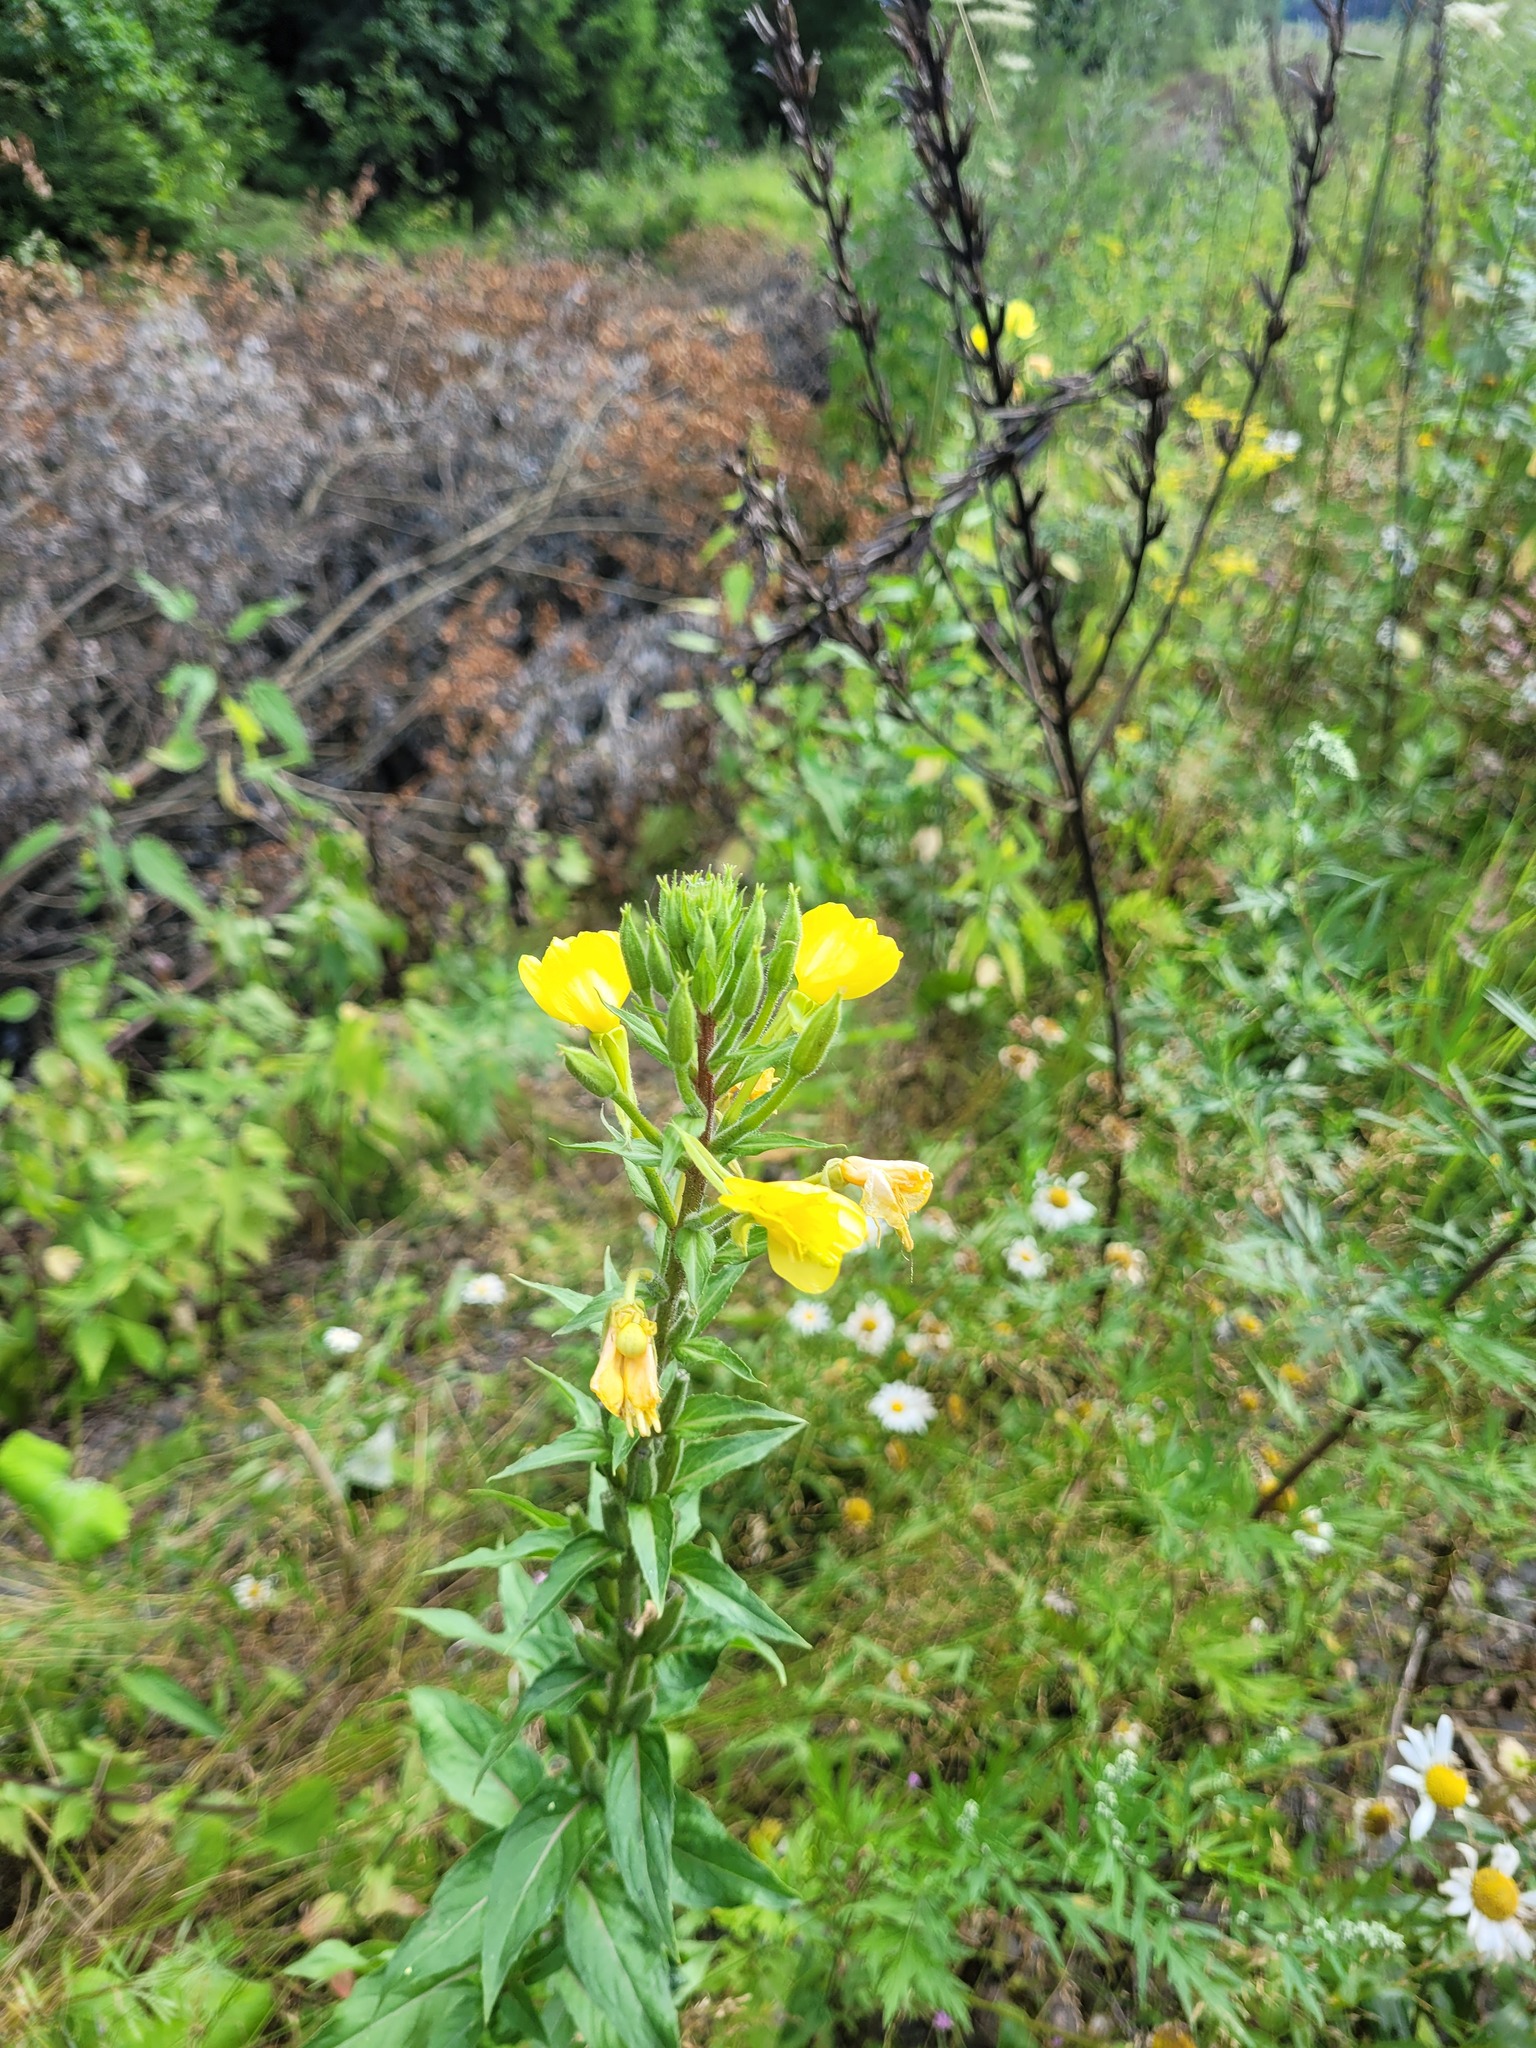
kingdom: Plantae
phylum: Tracheophyta
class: Magnoliopsida
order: Myrtales
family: Onagraceae
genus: Oenothera
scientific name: Oenothera rubricaulis
